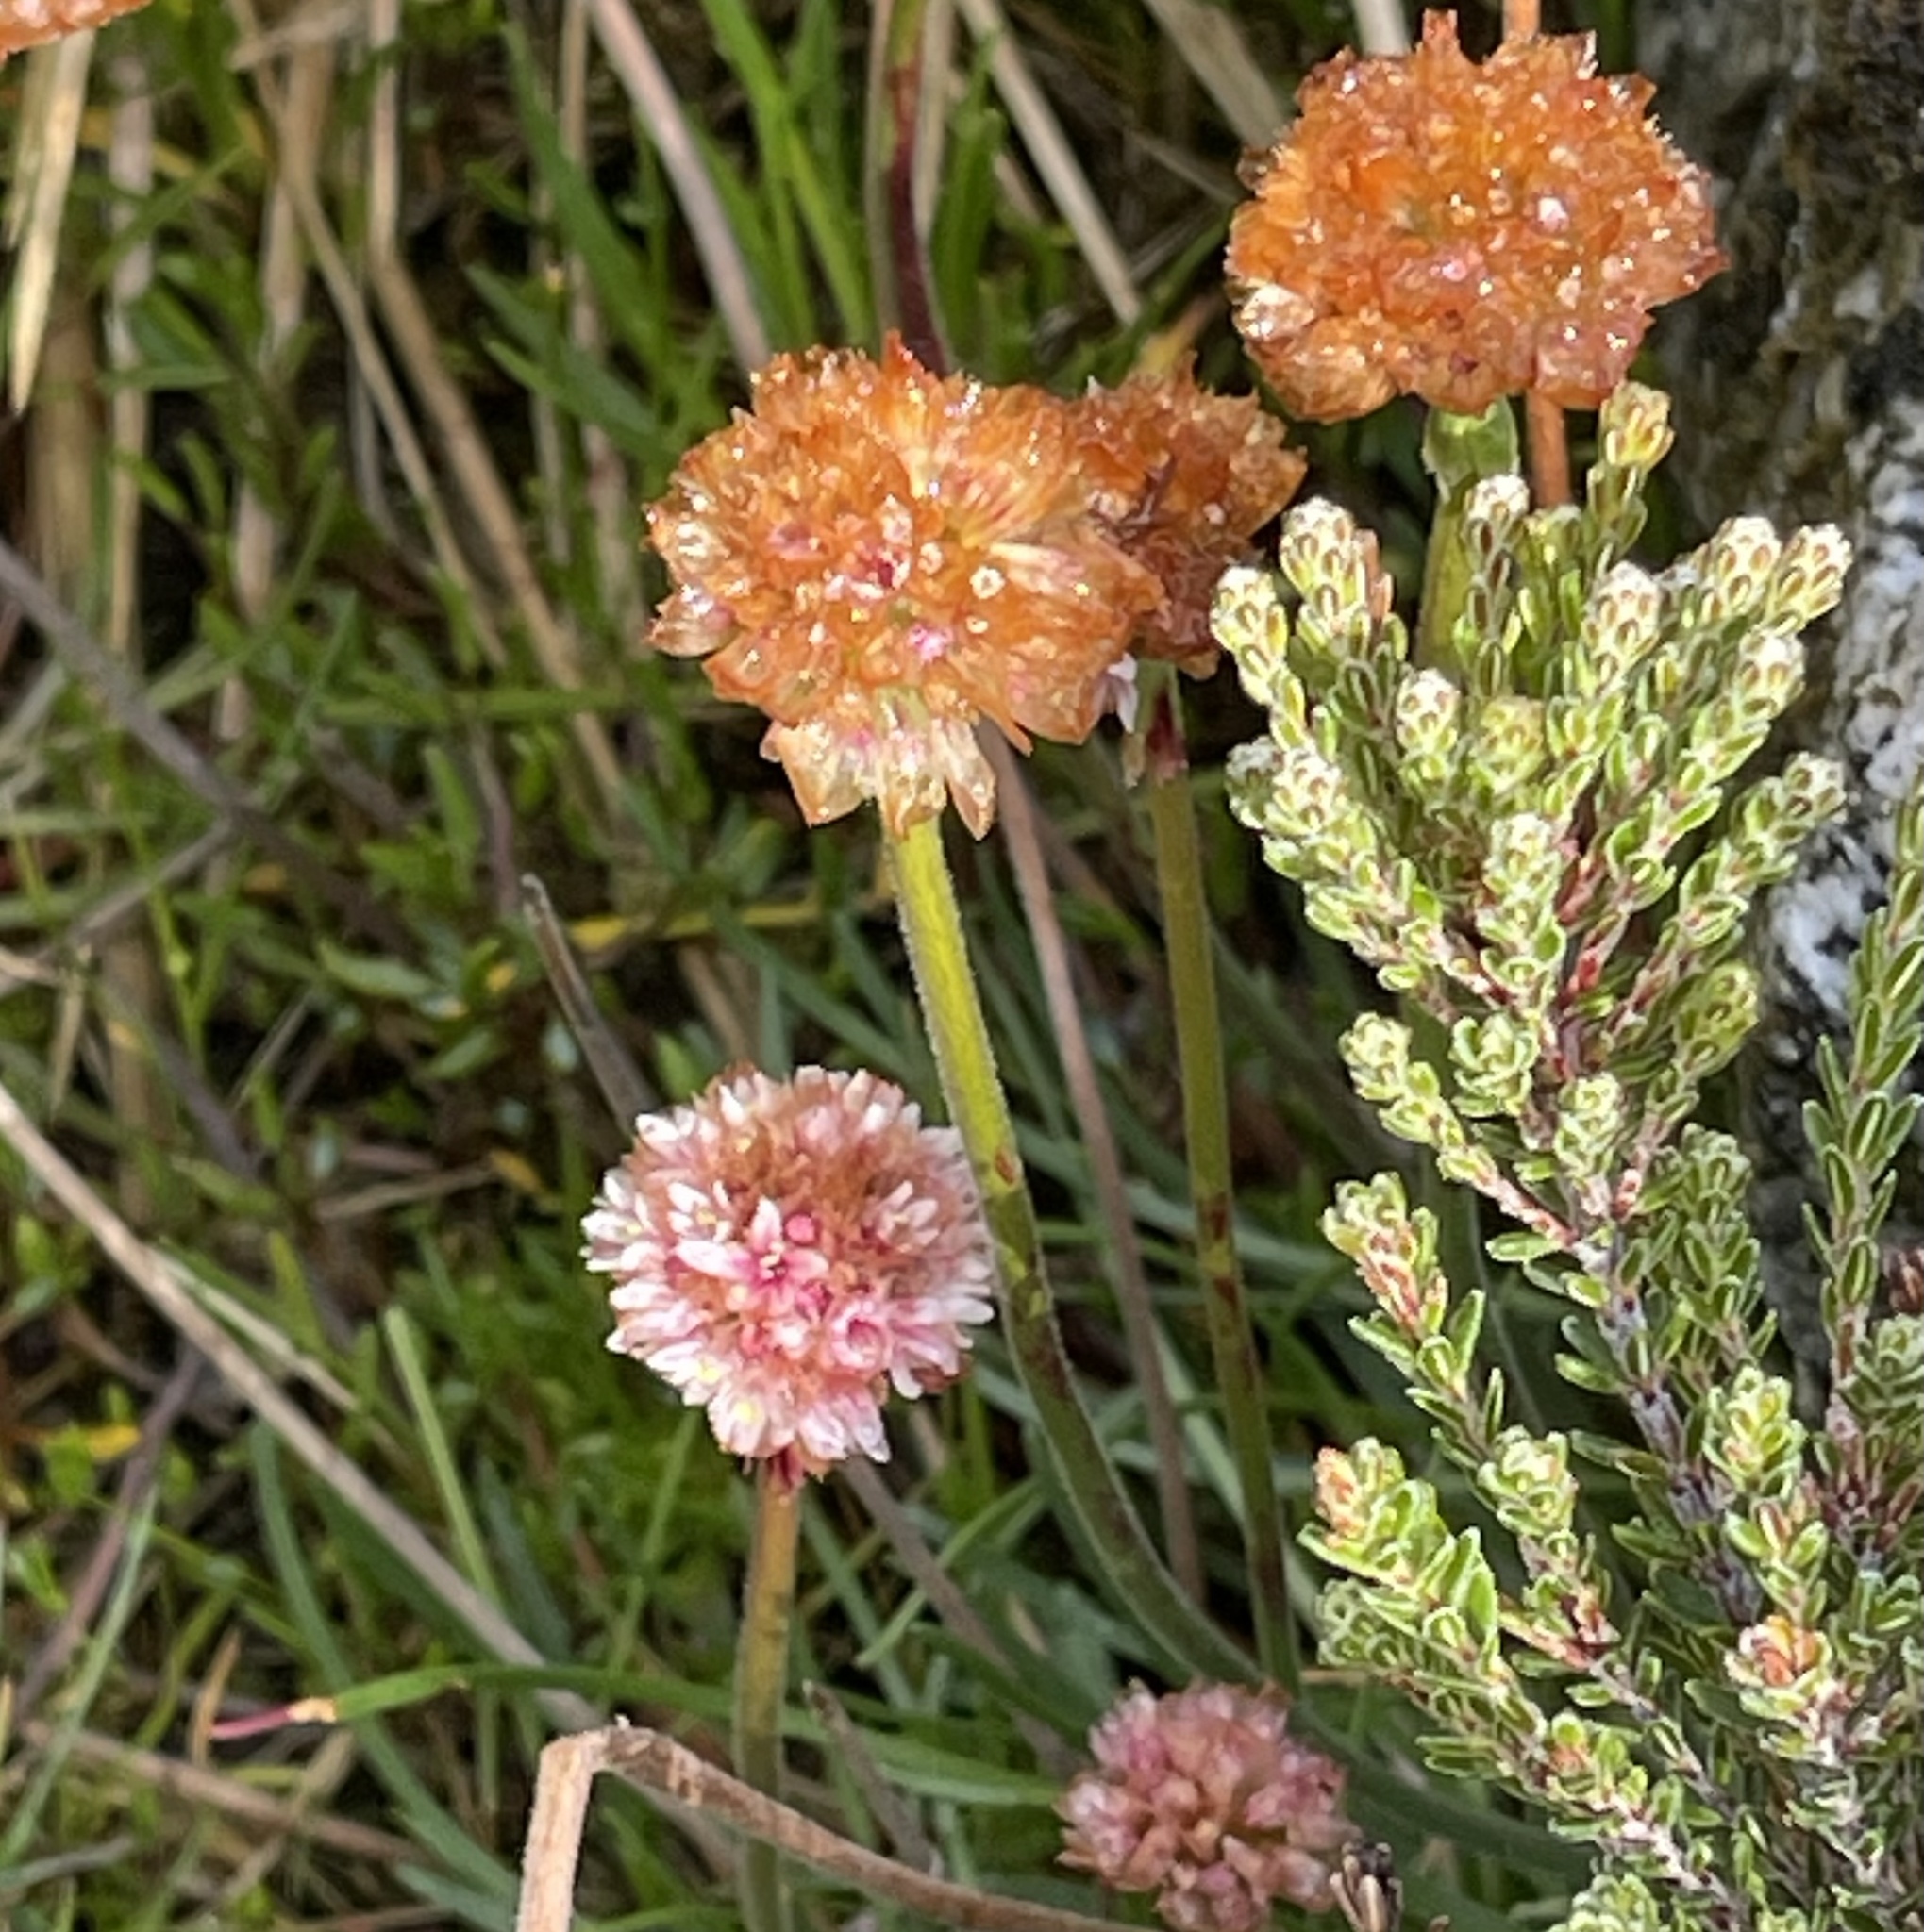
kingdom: Plantae
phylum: Tracheophyta
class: Magnoliopsida
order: Caryophyllales
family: Plumbaginaceae
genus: Armeria
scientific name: Armeria curvifolia
